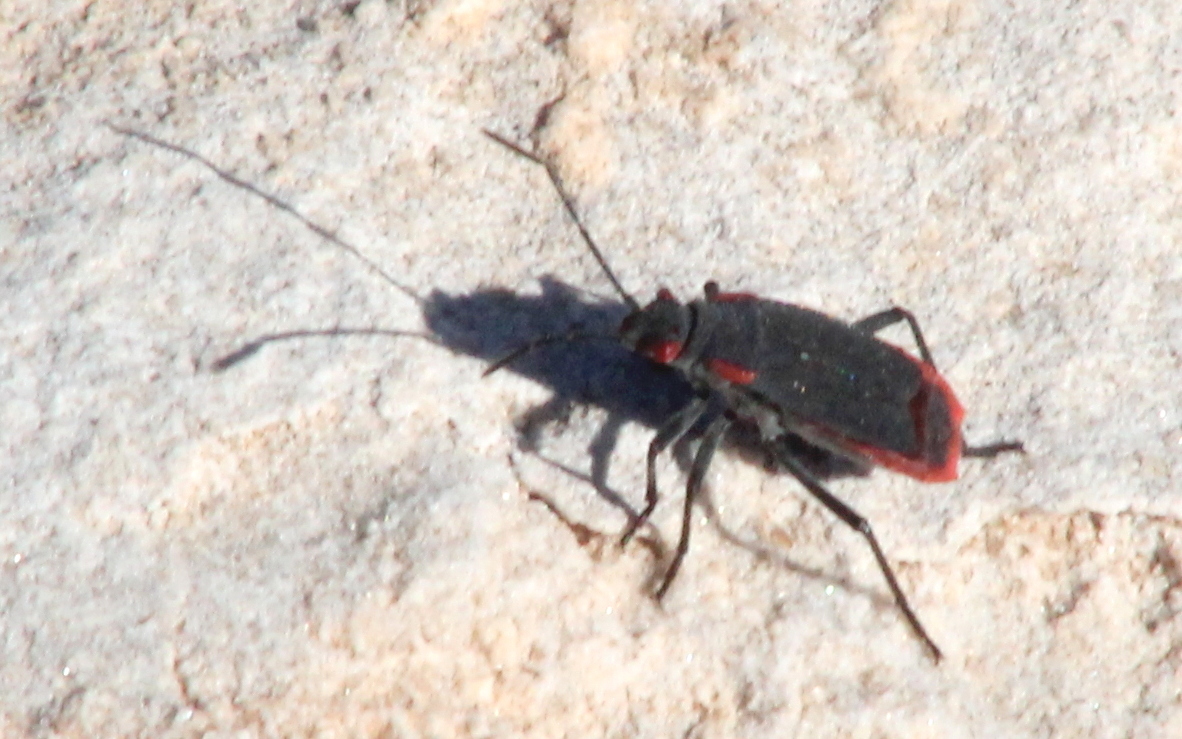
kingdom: Animalia
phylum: Arthropoda
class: Insecta
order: Hemiptera
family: Rhopalidae
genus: Jadera
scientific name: Jadera haematoloma
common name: Red-shouldered bug
